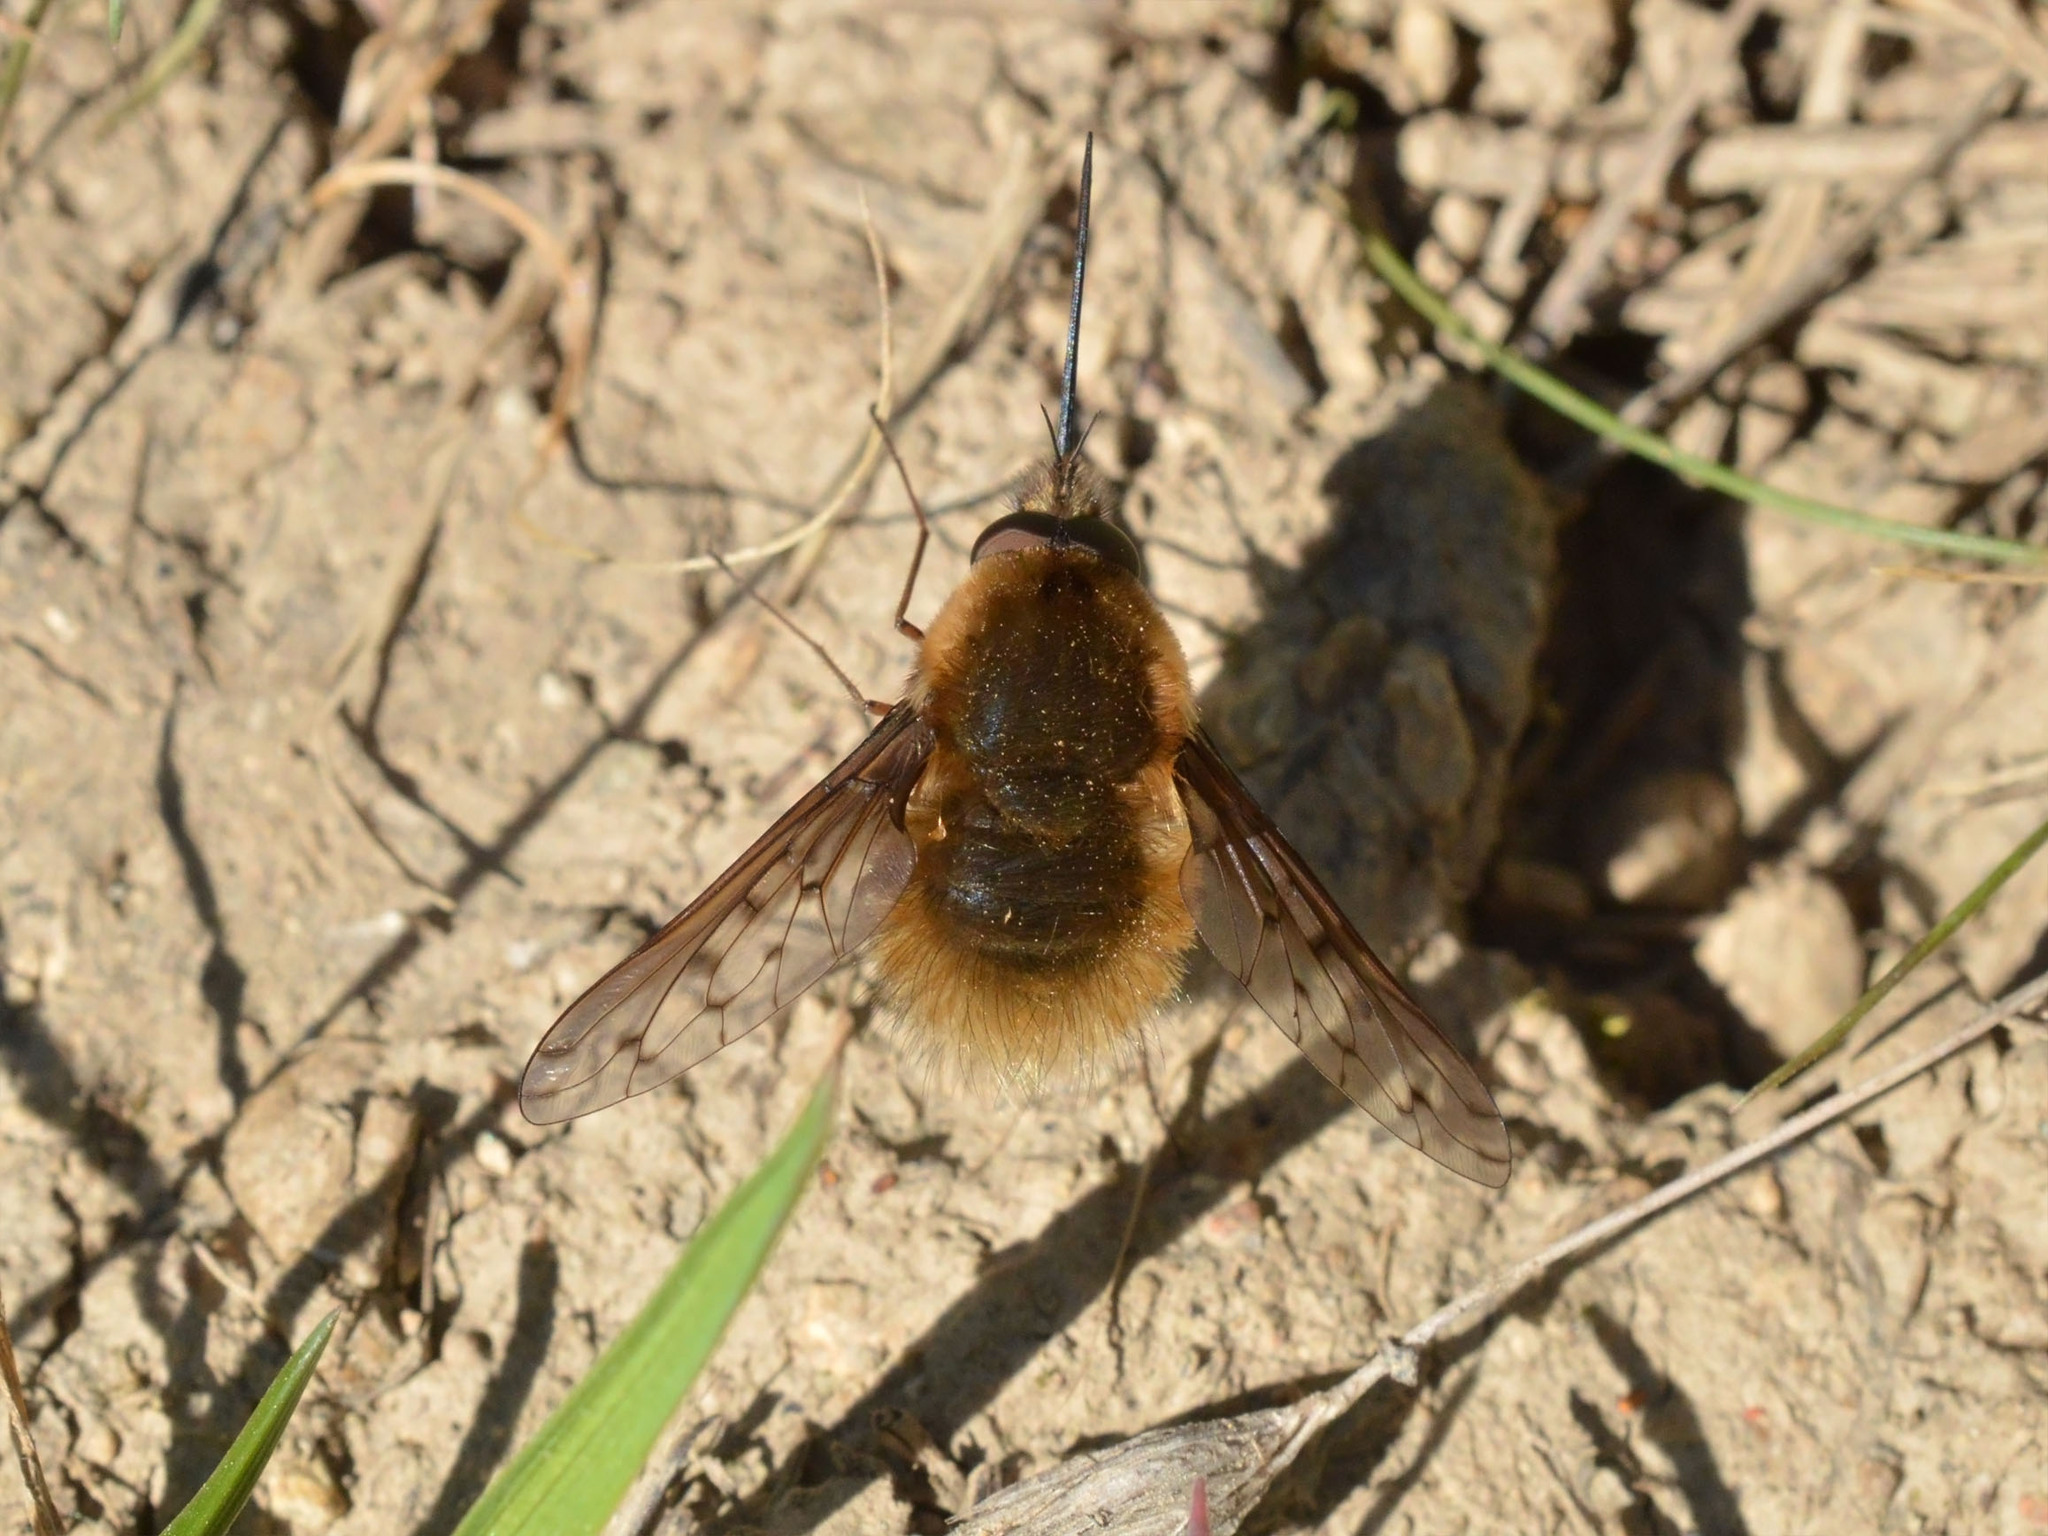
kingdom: Animalia
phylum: Arthropoda
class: Insecta
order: Diptera
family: Bombyliidae
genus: Bombylius
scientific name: Bombylius medius
